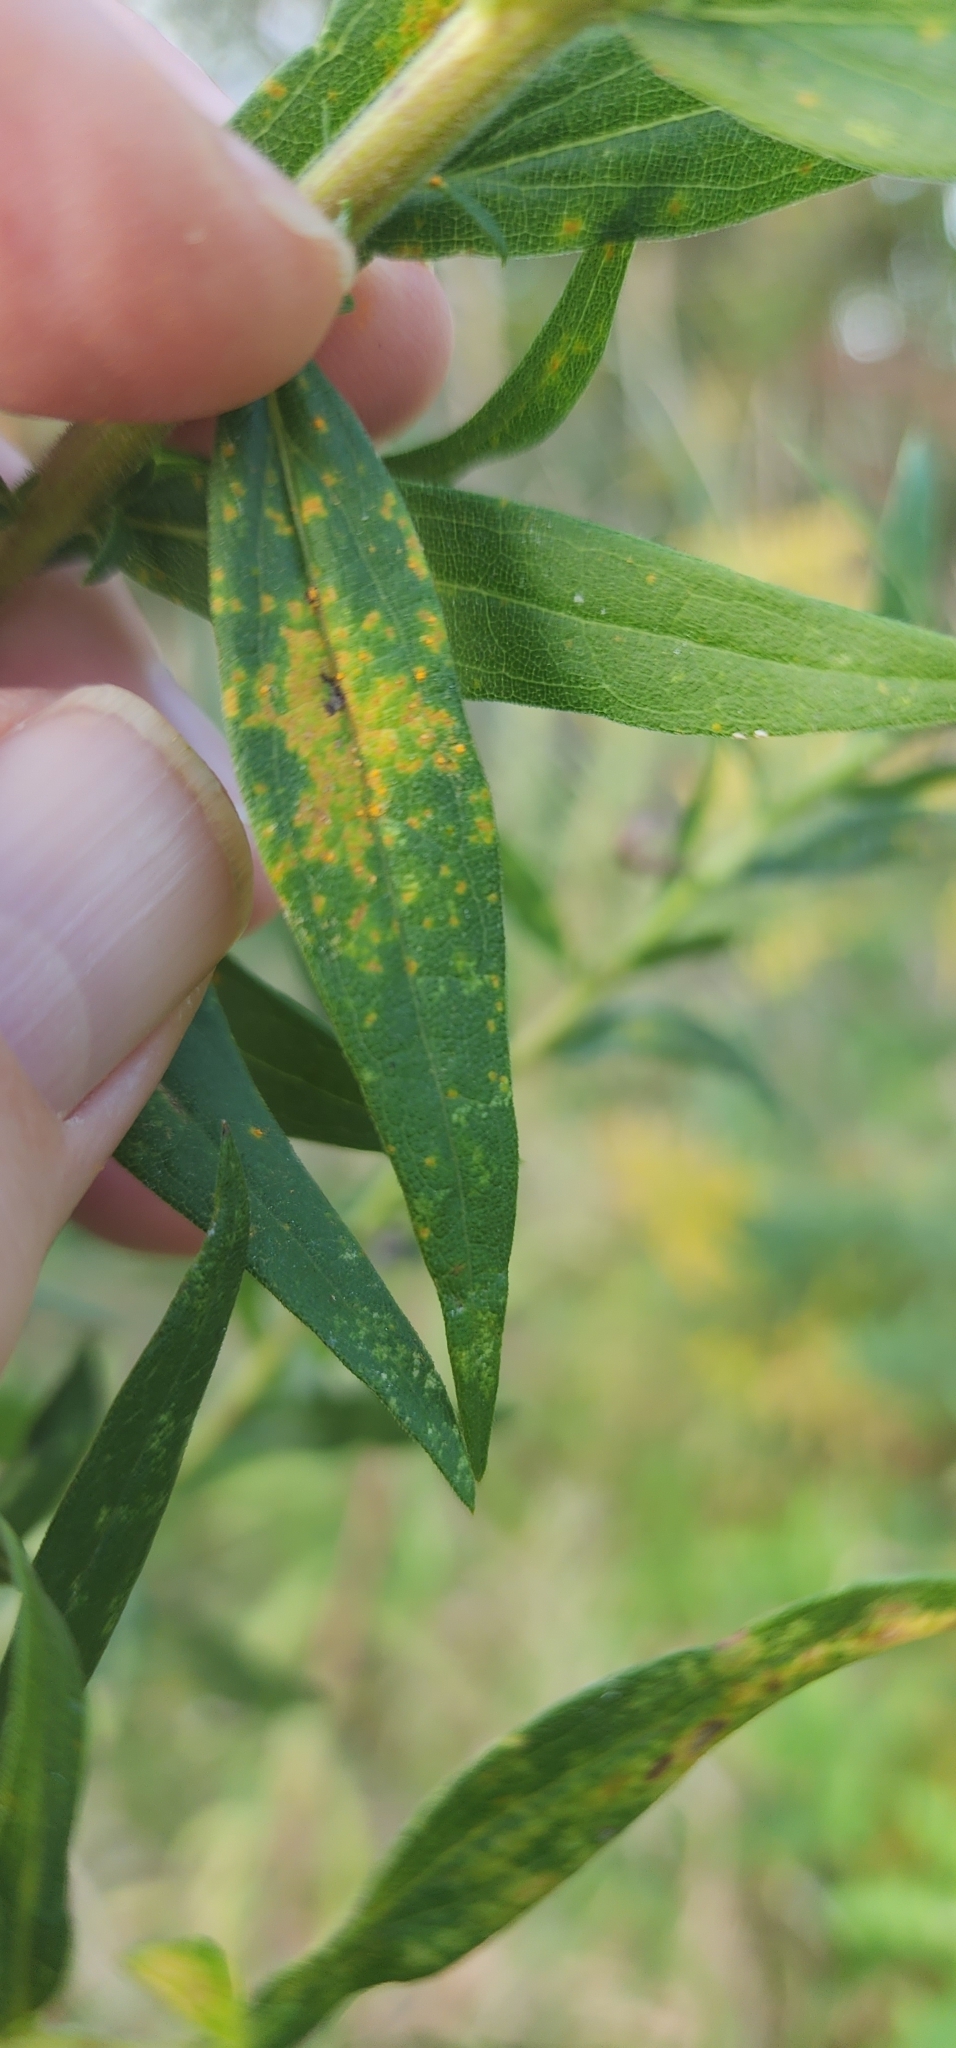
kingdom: Fungi
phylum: Basidiomycota
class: Pucciniomycetes
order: Pucciniales
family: Coleosporiaceae
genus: Coleosporium
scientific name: Coleosporium asterum
